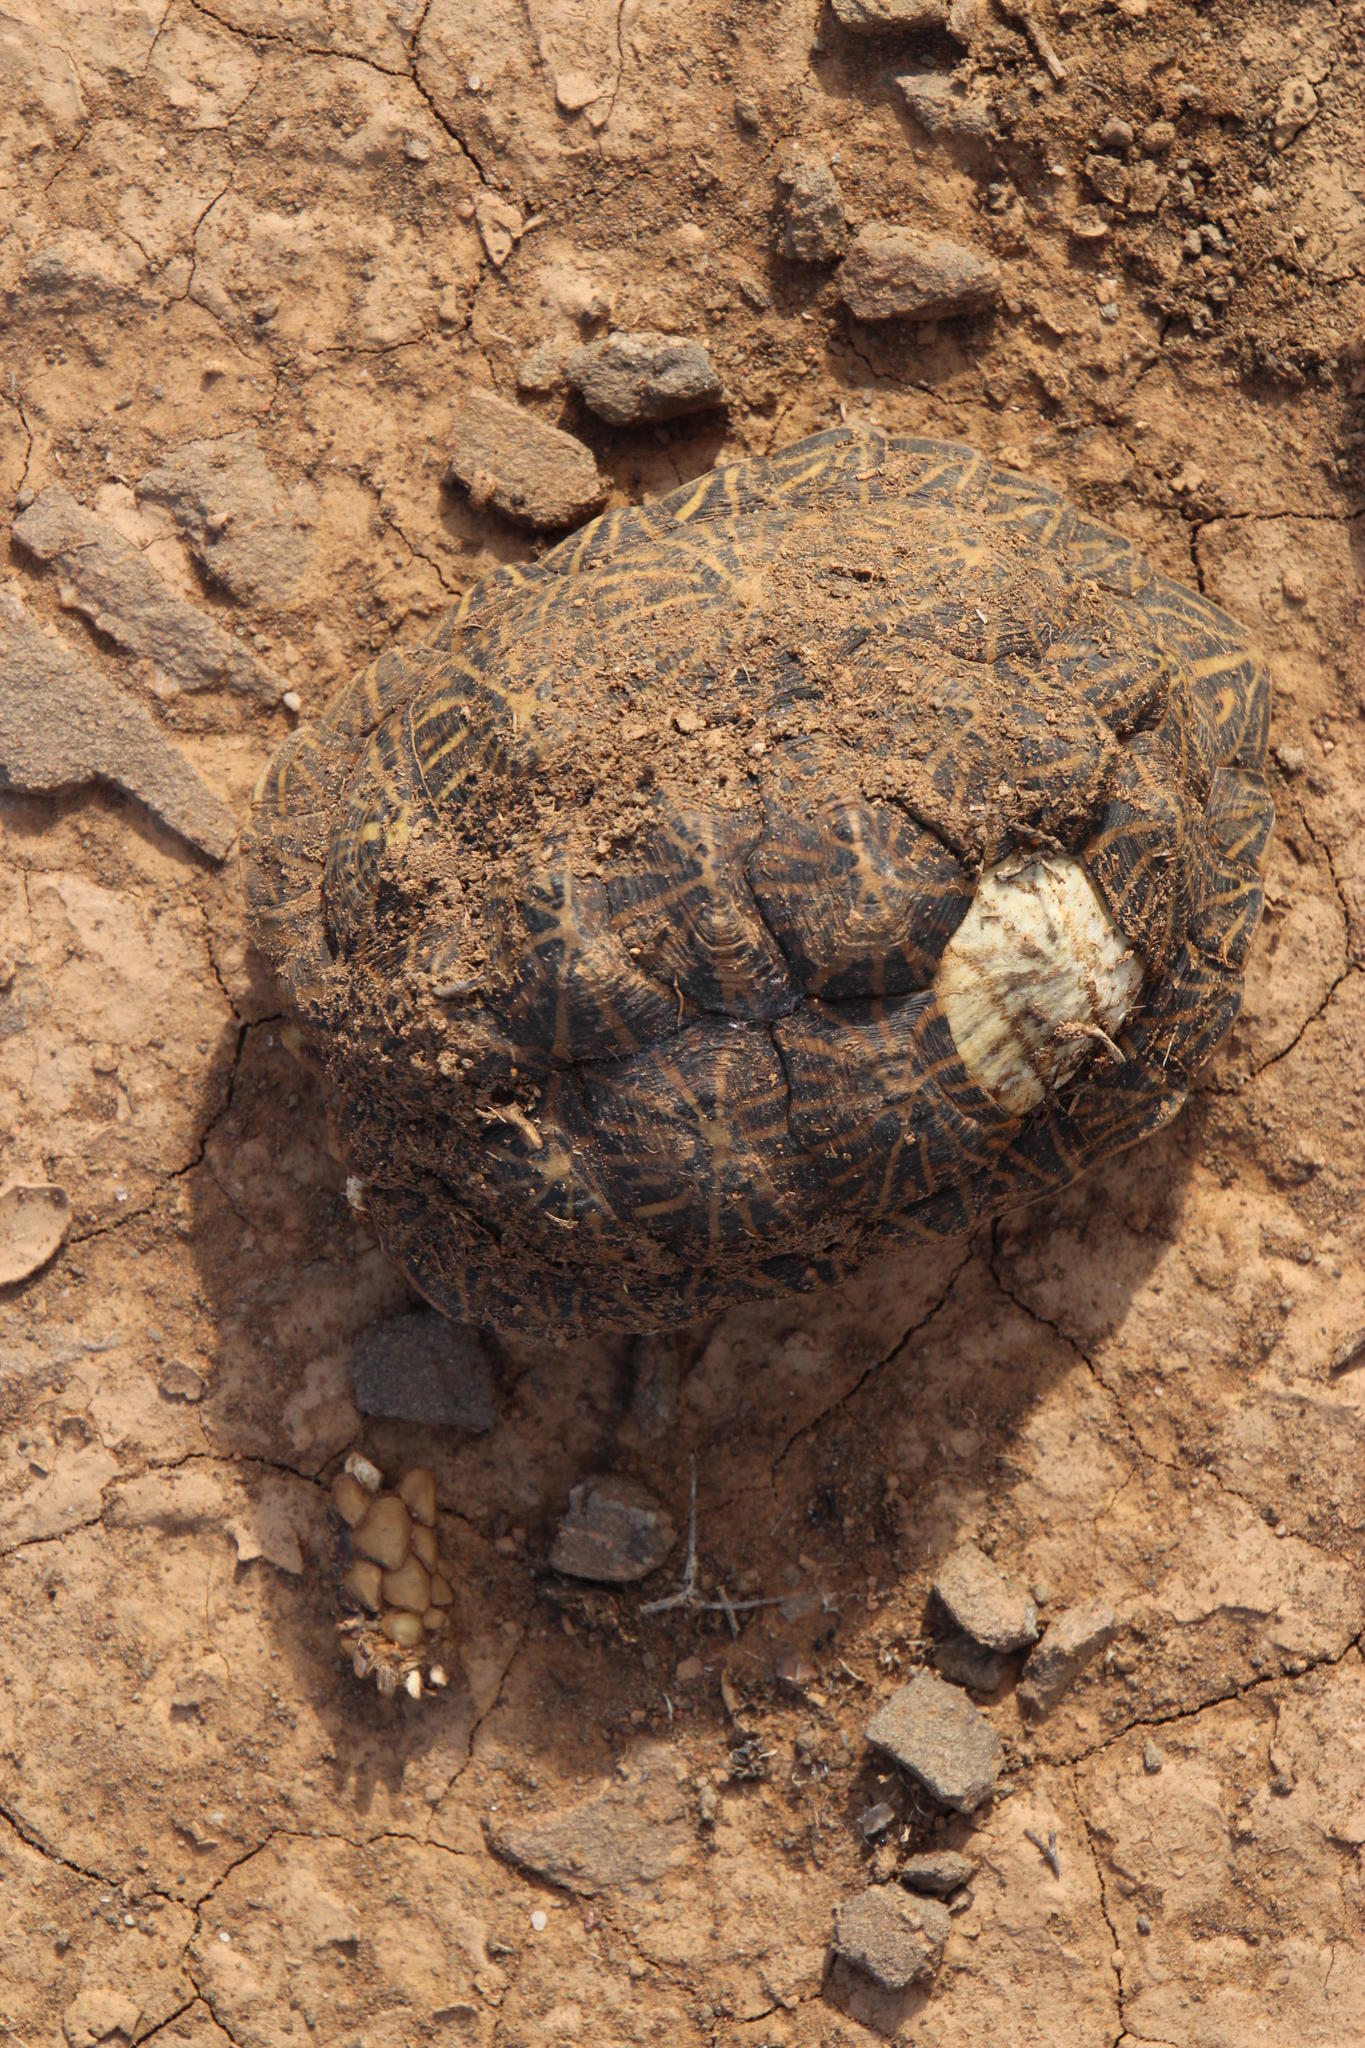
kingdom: Animalia
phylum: Chordata
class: Testudines
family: Testudinidae
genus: Psammobates
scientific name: Psammobates tentorius
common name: Tent tortoise
